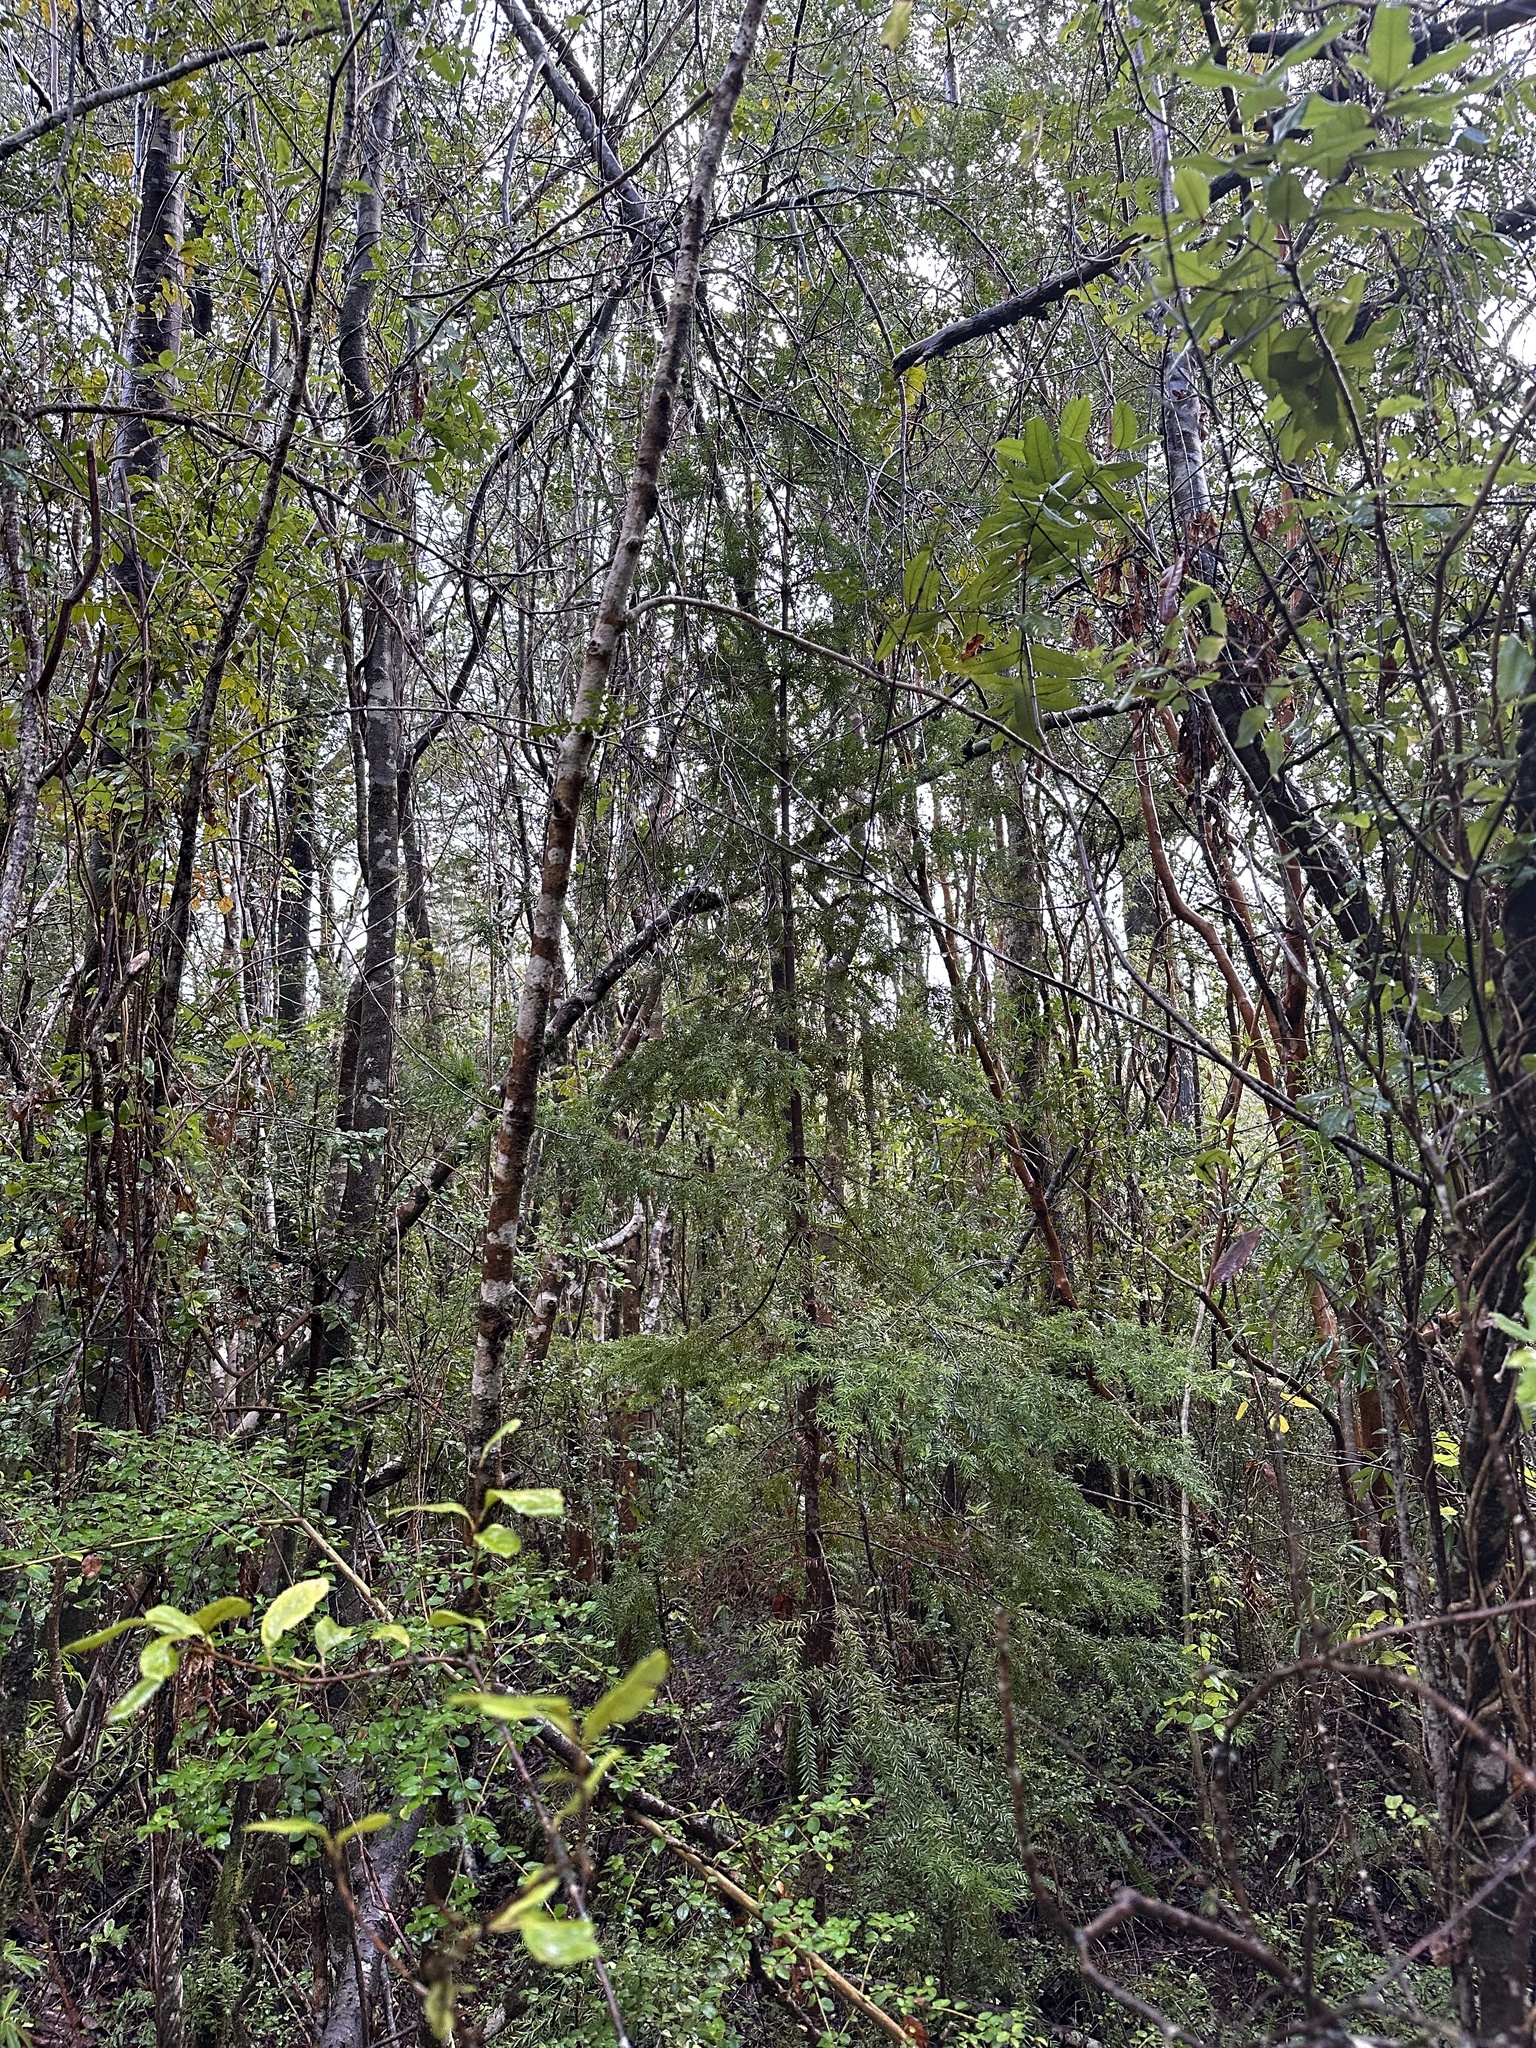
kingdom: Plantae
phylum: Tracheophyta
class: Pinopsida
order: Pinales
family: Podocarpaceae
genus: Saxegothaea
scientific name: Saxegothaea conspicua
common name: Prince albert's yew
